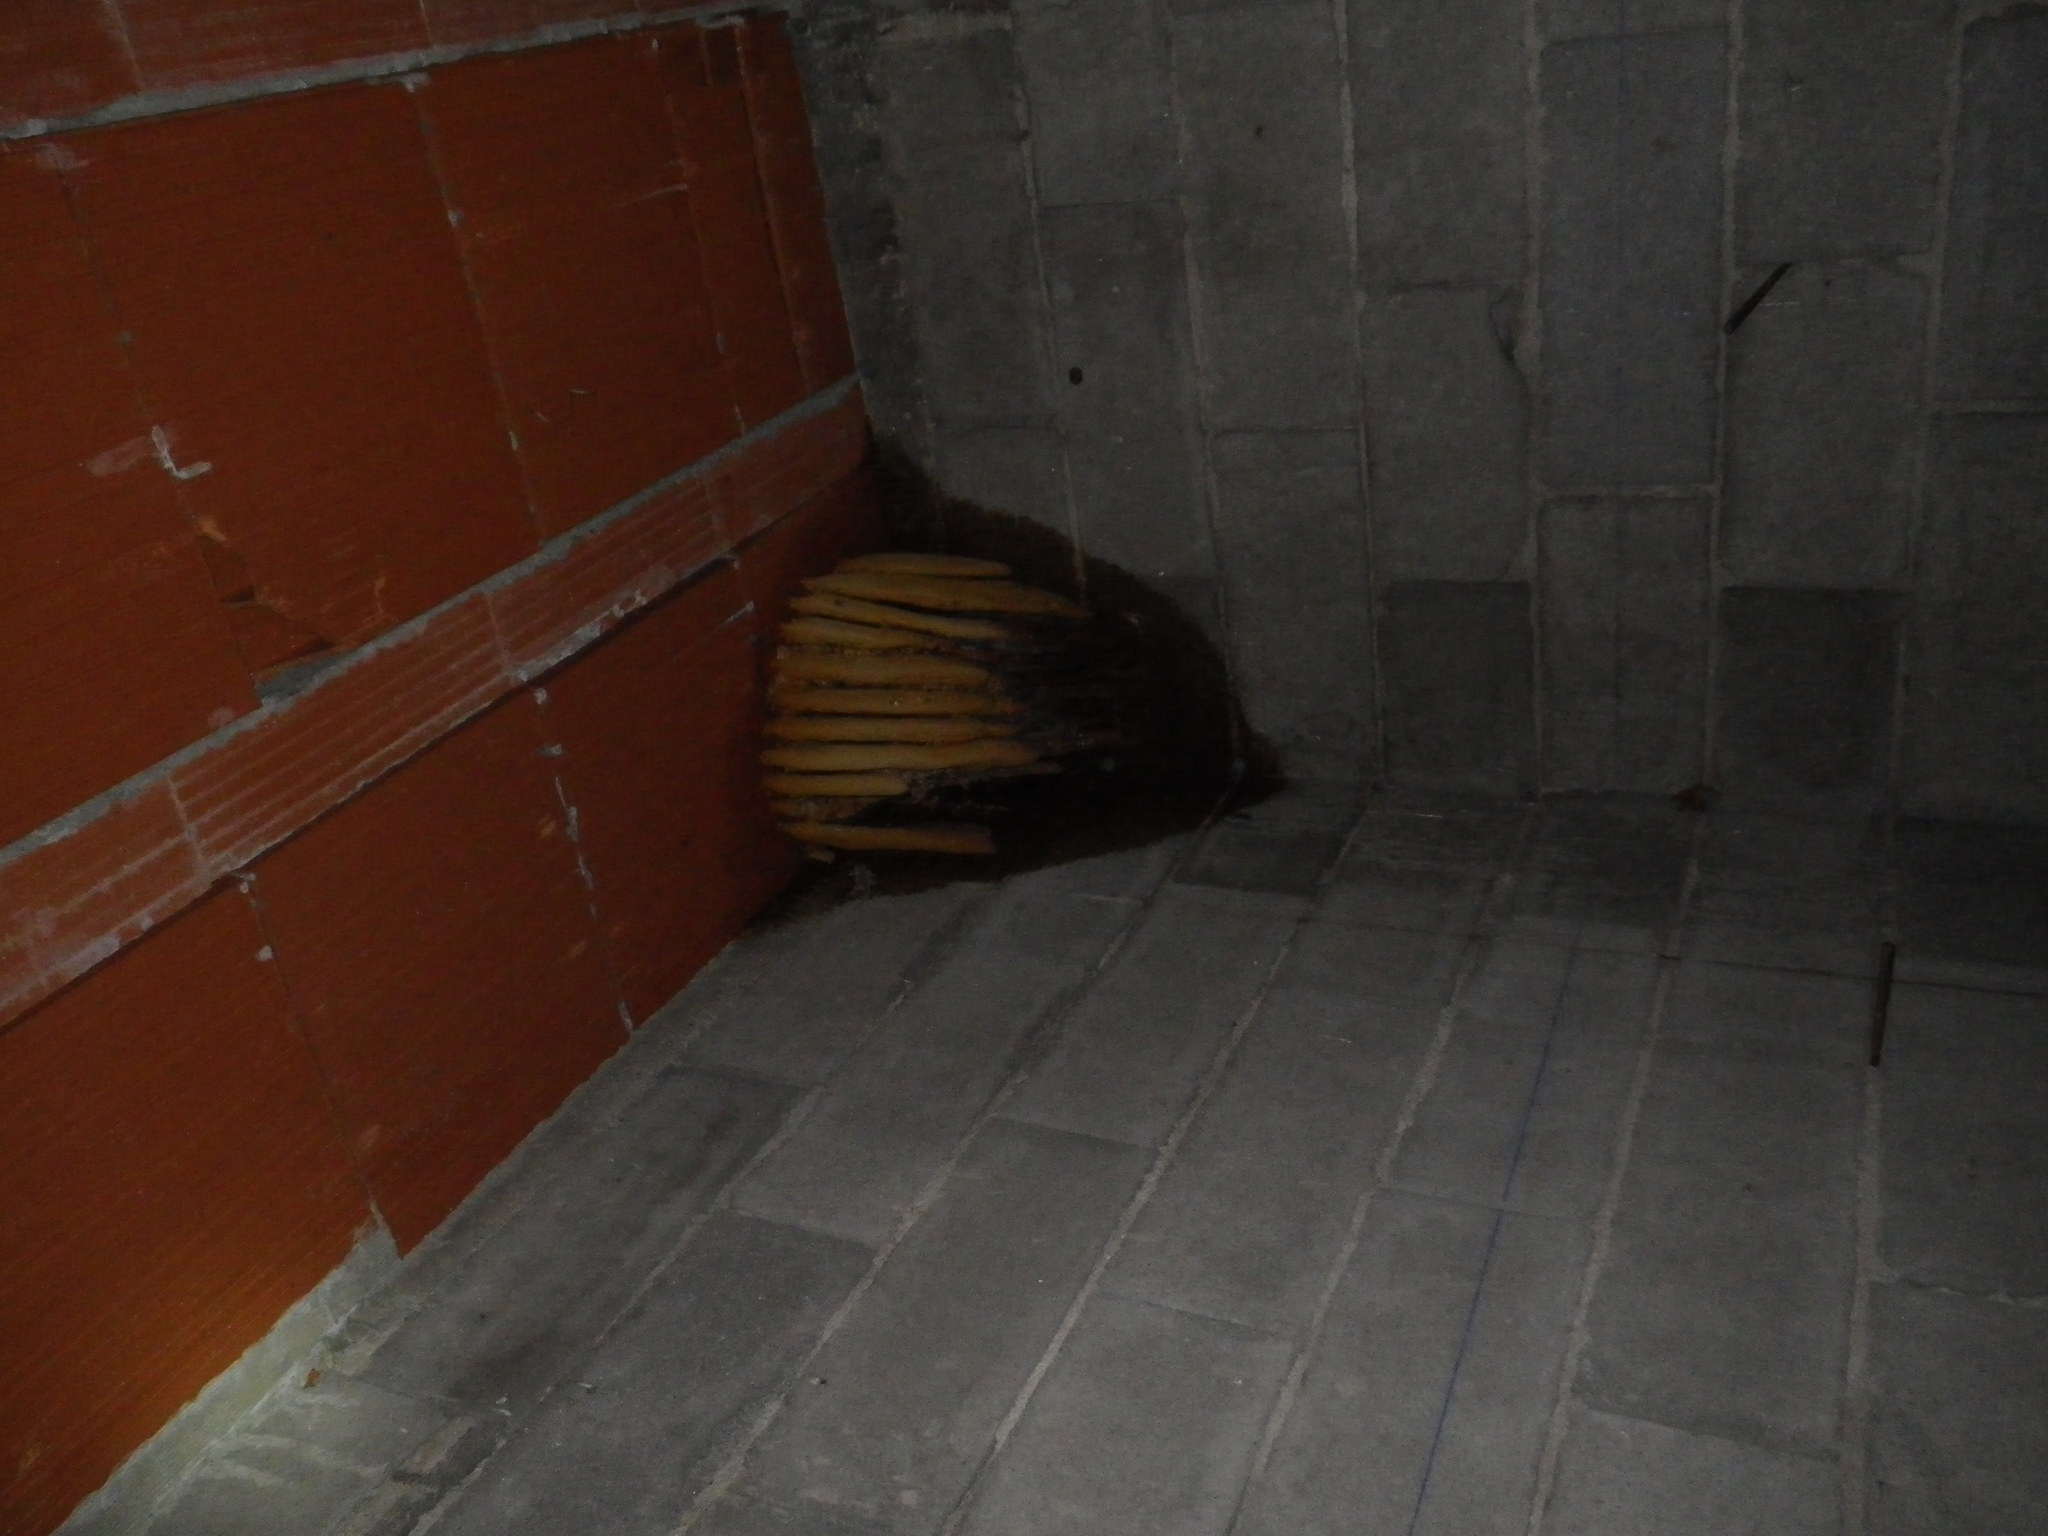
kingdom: Animalia
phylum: Arthropoda
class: Insecta
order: Hymenoptera
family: Apidae
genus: Apis
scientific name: Apis mellifera
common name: Honey bee
